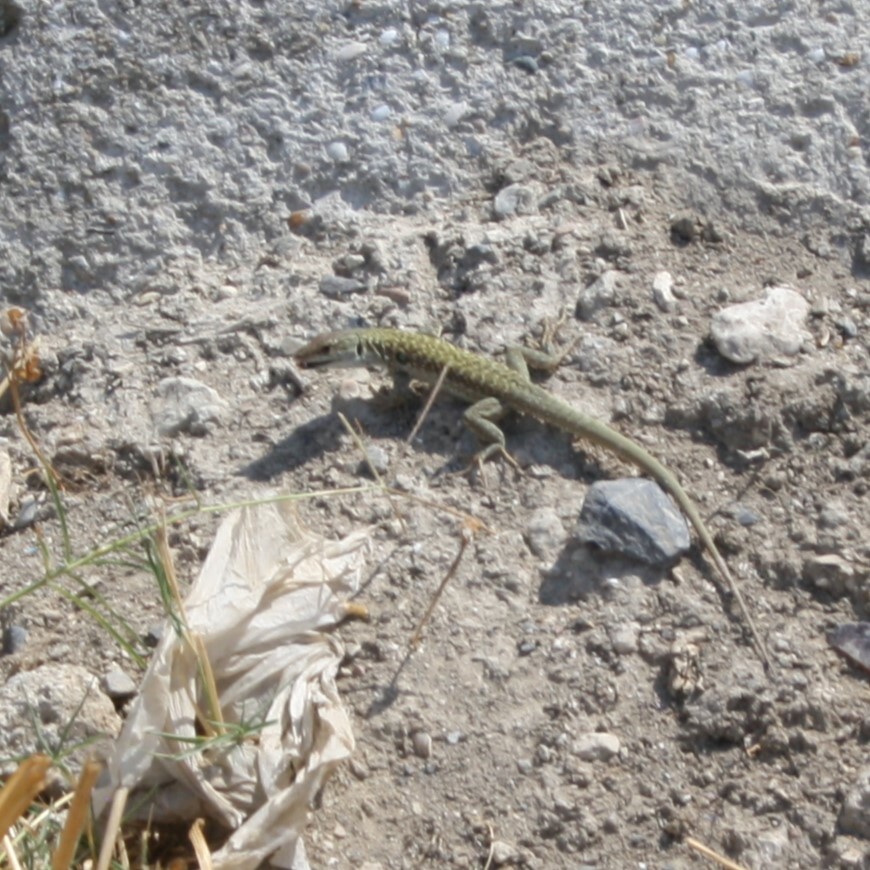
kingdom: Animalia
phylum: Chordata
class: Squamata
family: Lacertidae
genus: Podarcis
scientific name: Podarcis siculus
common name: Italian wall lizard
